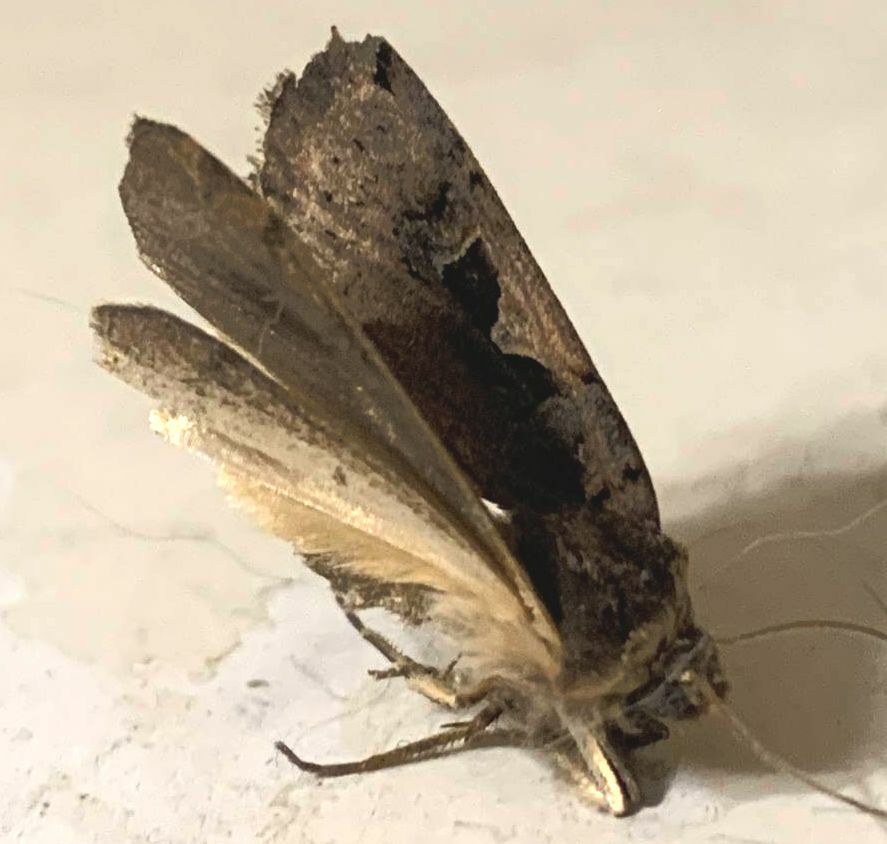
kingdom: Animalia
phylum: Arthropoda
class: Insecta
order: Lepidoptera
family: Noctuidae
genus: Xestia
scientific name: Xestia c-nigrum
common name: Setaceous hebrew character
